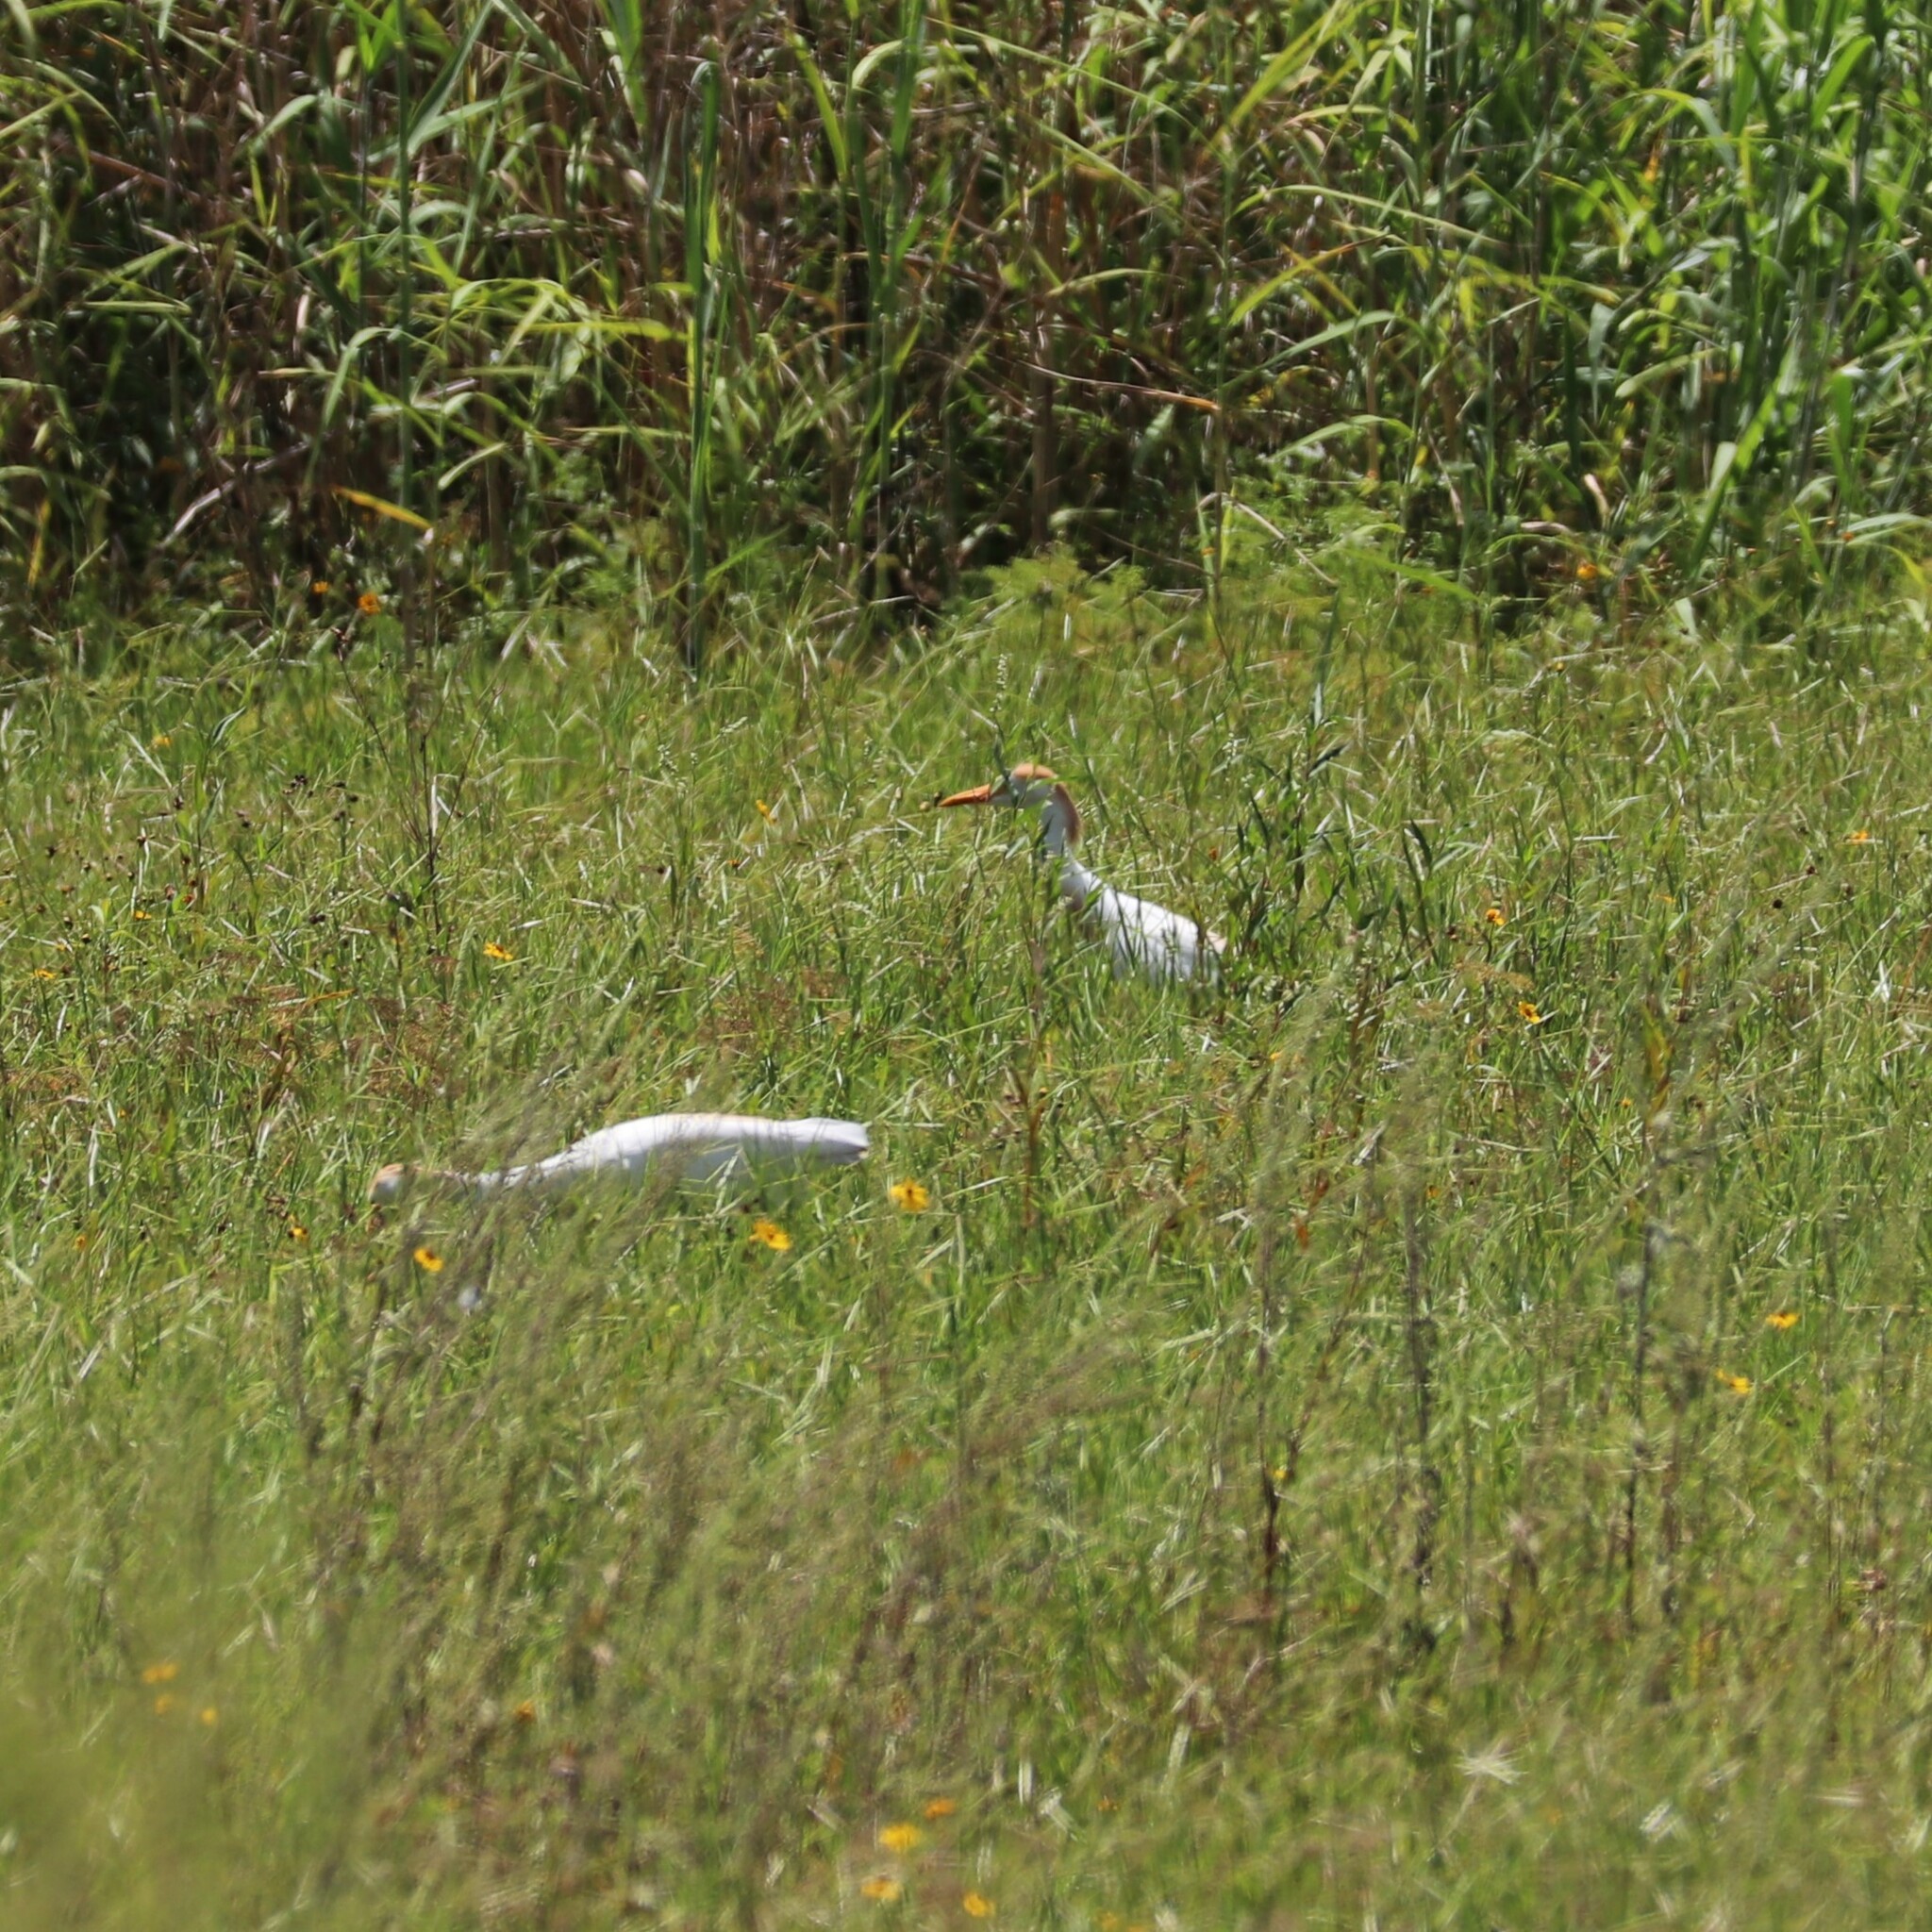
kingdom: Animalia
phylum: Chordata
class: Aves
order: Pelecaniformes
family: Ardeidae
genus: Bubulcus
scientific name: Bubulcus ibis
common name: Cattle egret
